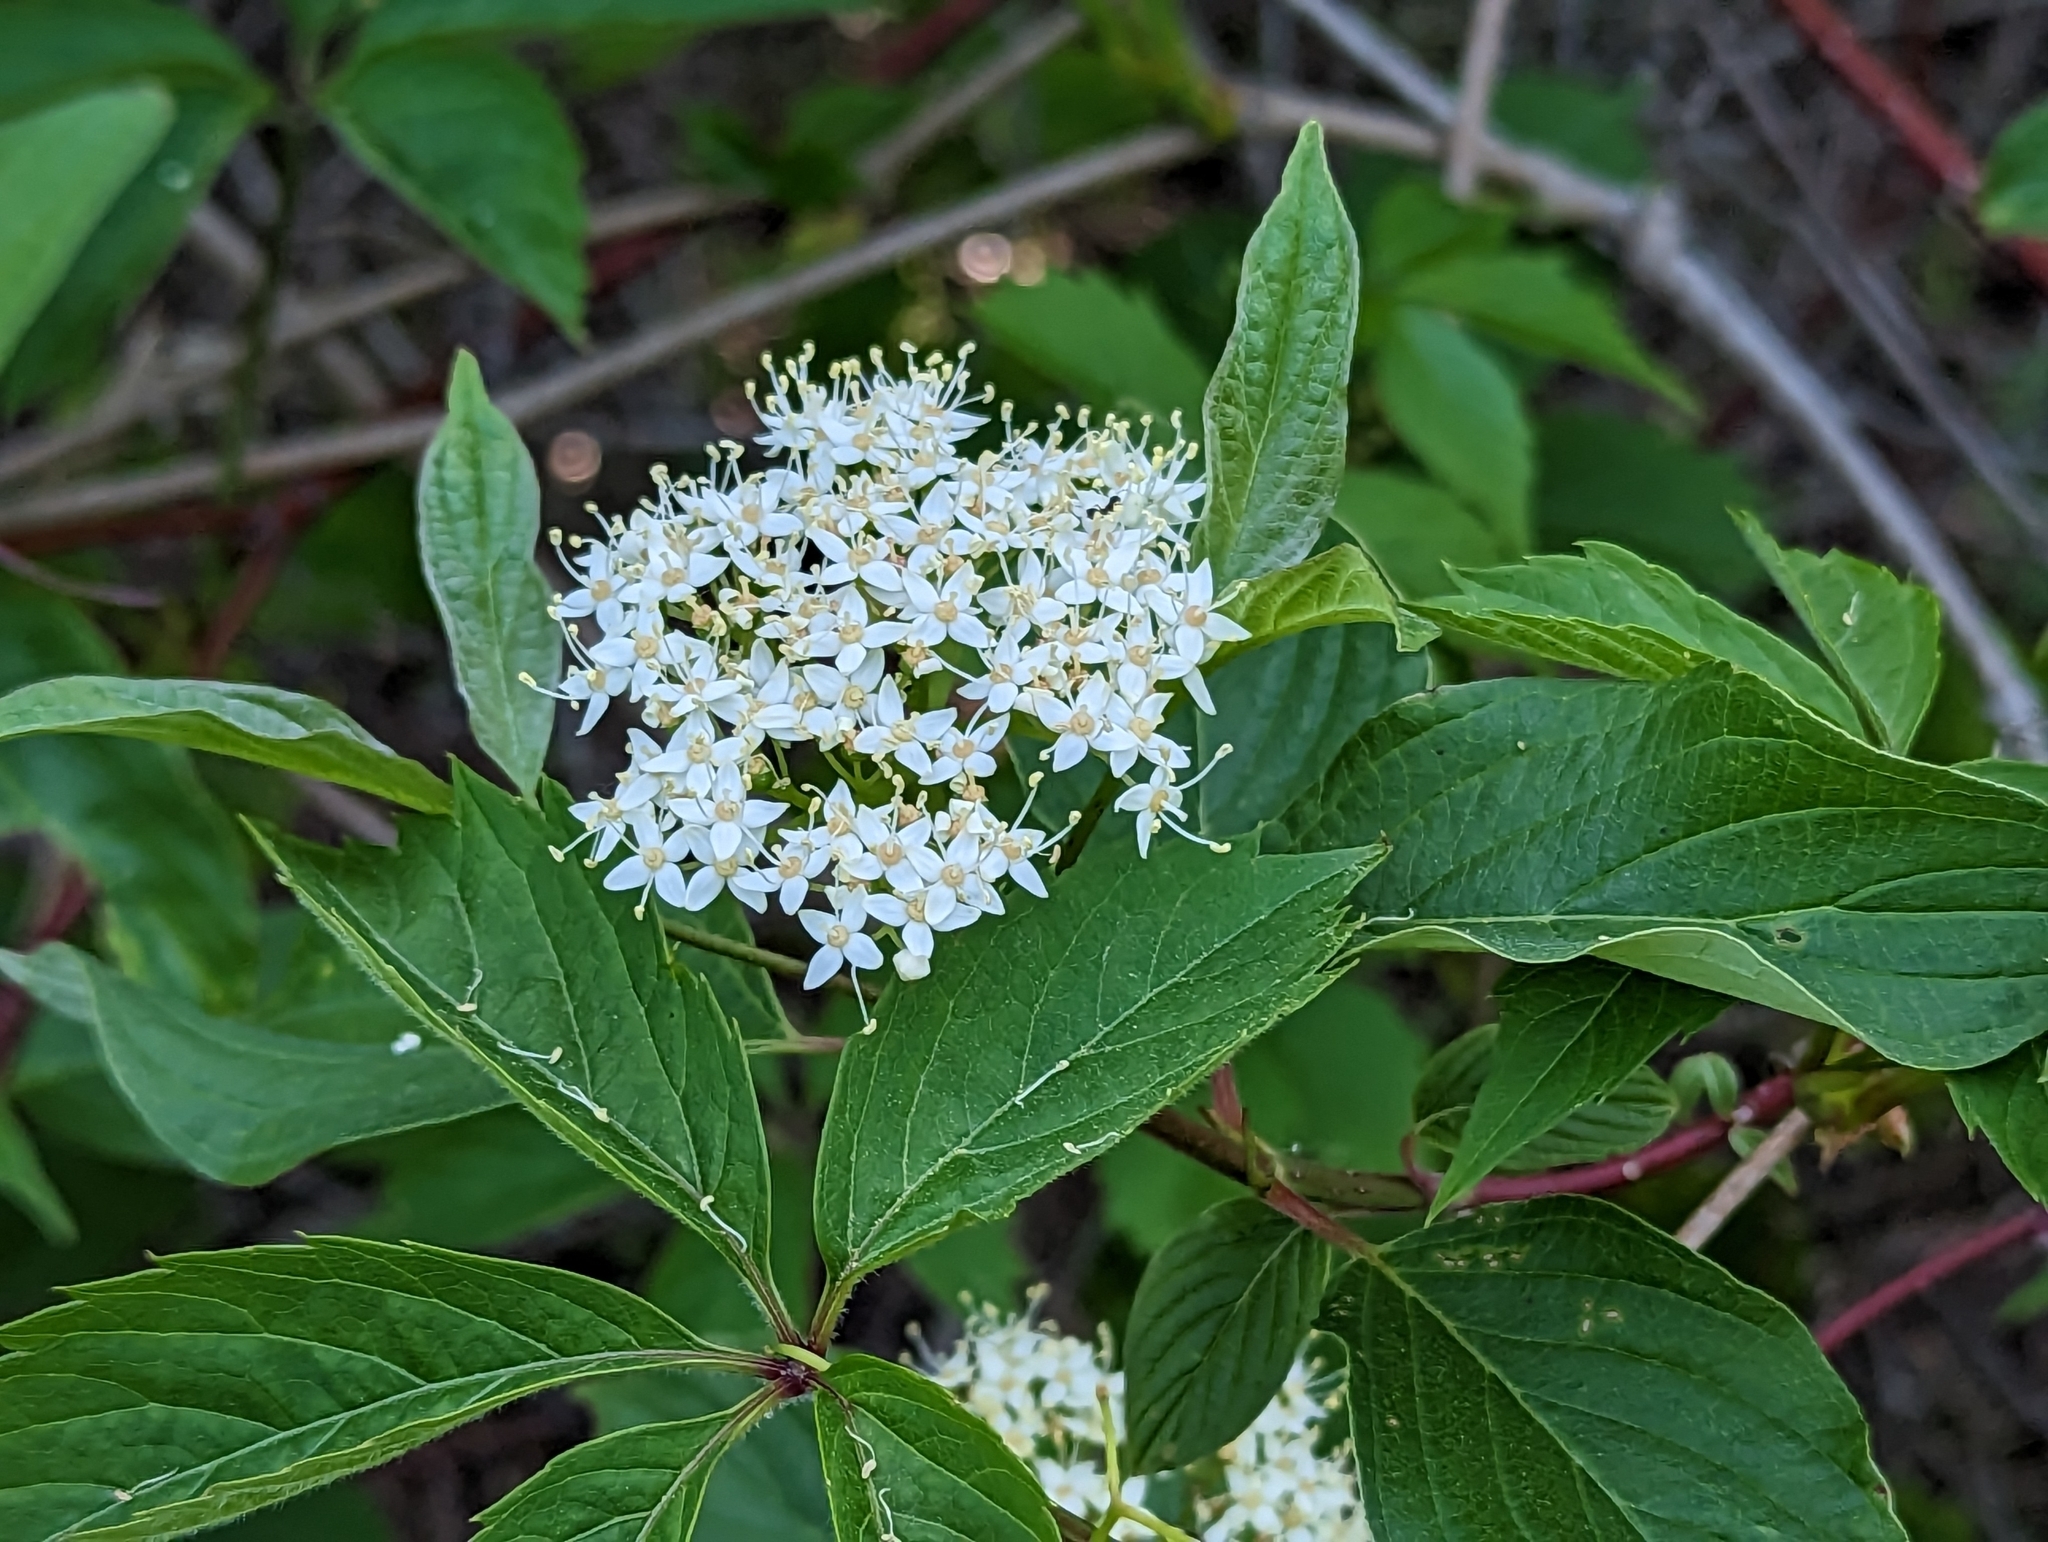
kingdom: Plantae
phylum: Tracheophyta
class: Magnoliopsida
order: Cornales
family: Cornaceae
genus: Cornus
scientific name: Cornus sericea
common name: Red-osier dogwood
